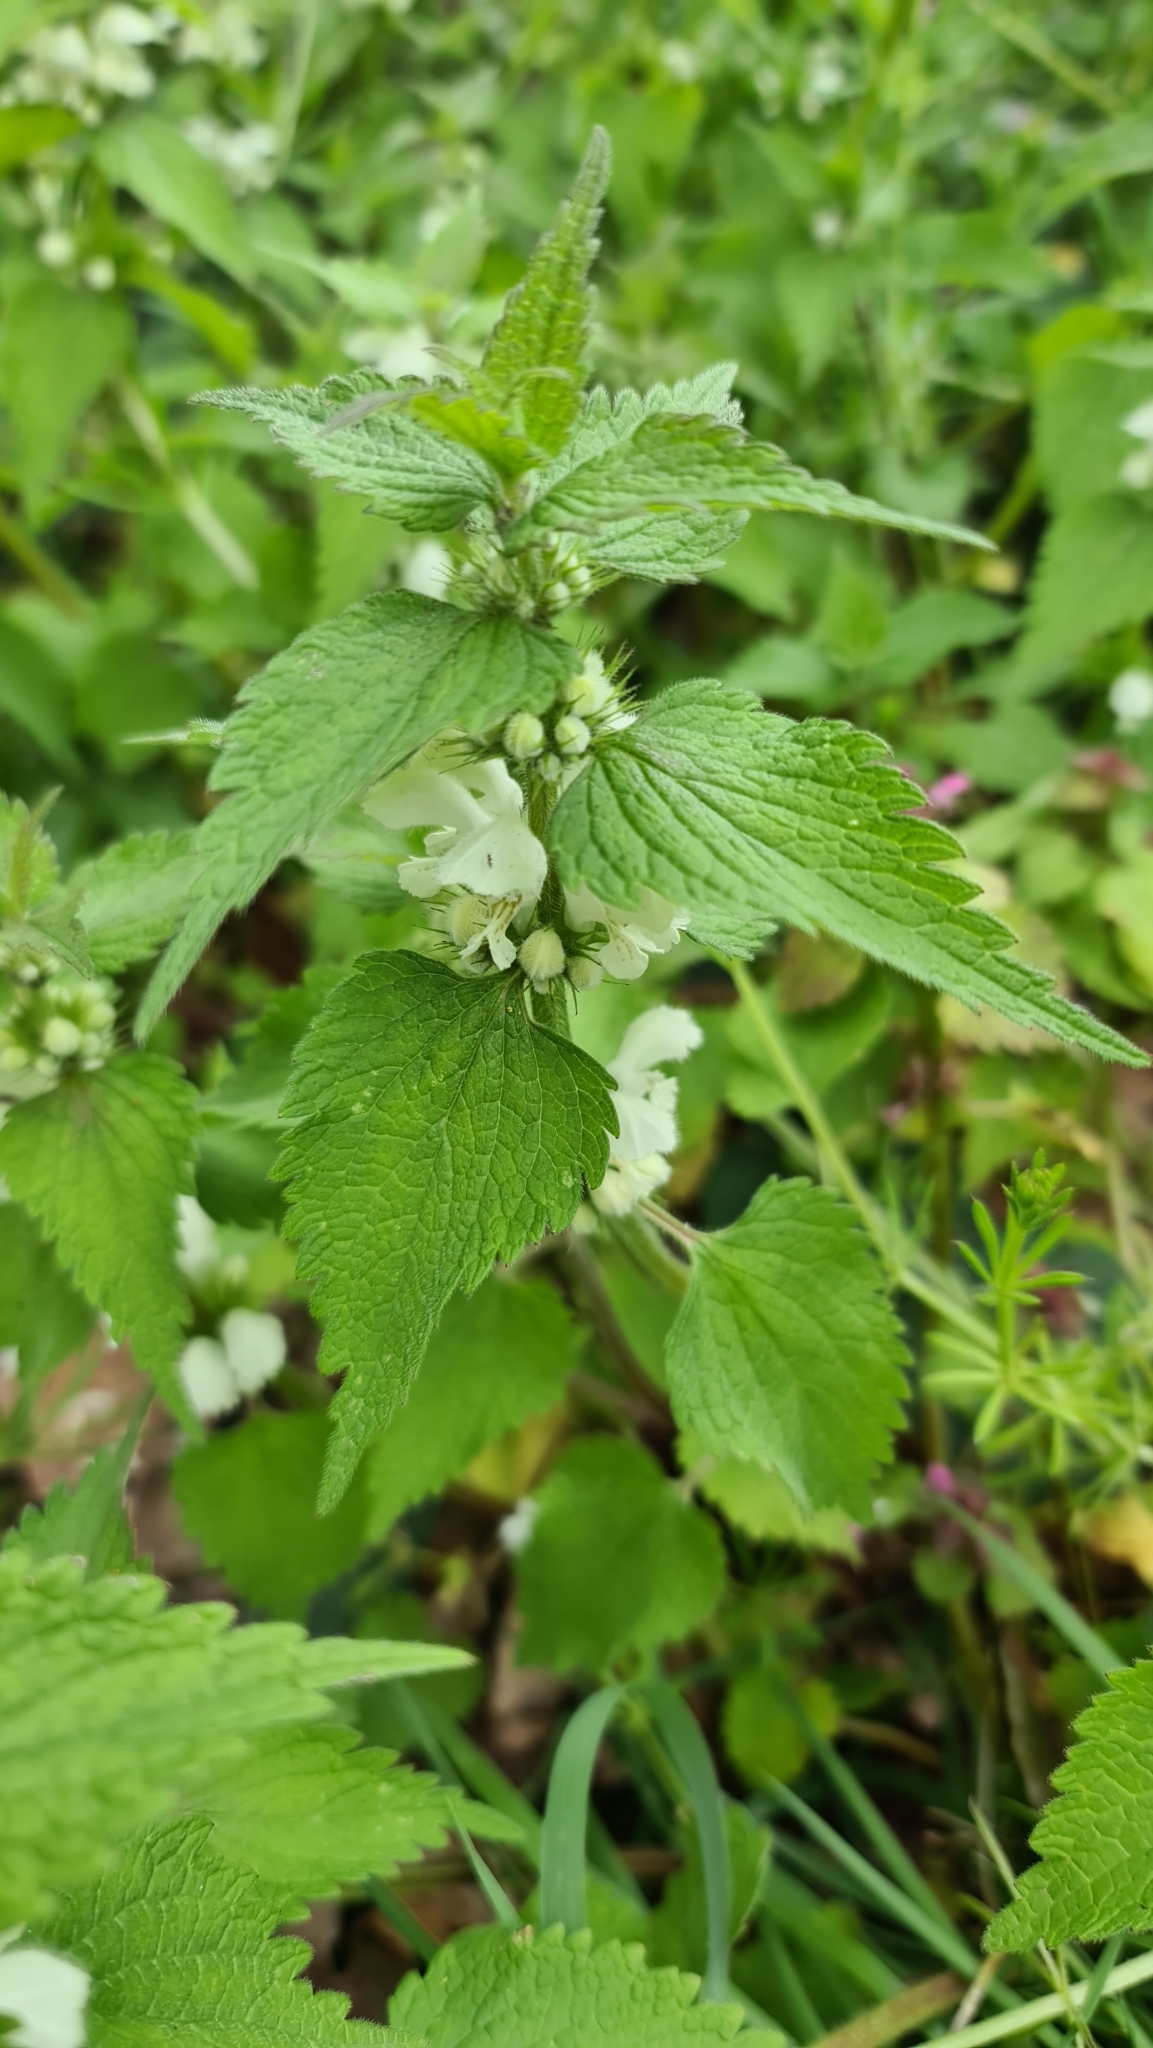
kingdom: Plantae
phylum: Tracheophyta
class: Magnoliopsida
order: Lamiales
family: Lamiaceae
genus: Lamium
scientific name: Lamium album
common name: White dead-nettle
